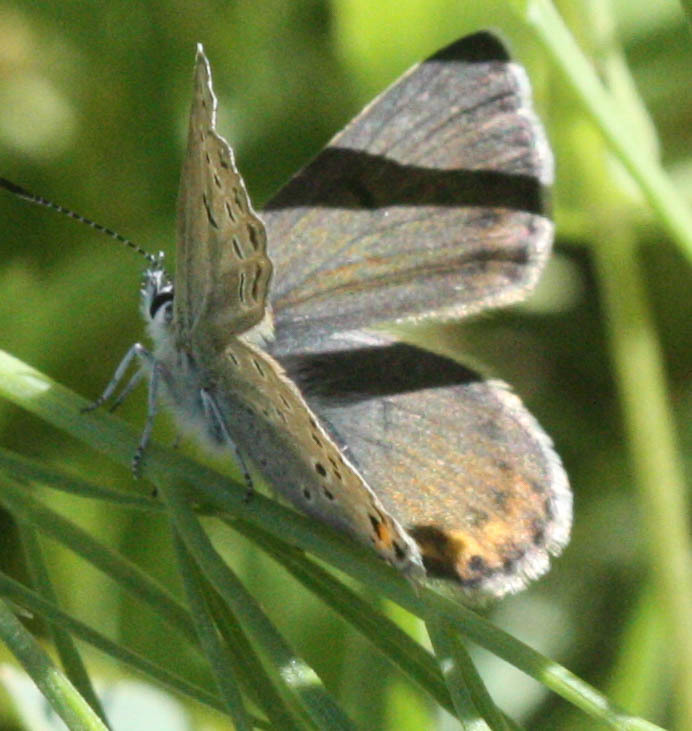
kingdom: Animalia
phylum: Arthropoda
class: Insecta
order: Lepidoptera
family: Lycaenidae
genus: Icaricia
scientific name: Icaricia saepiolus
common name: Greenish blue
